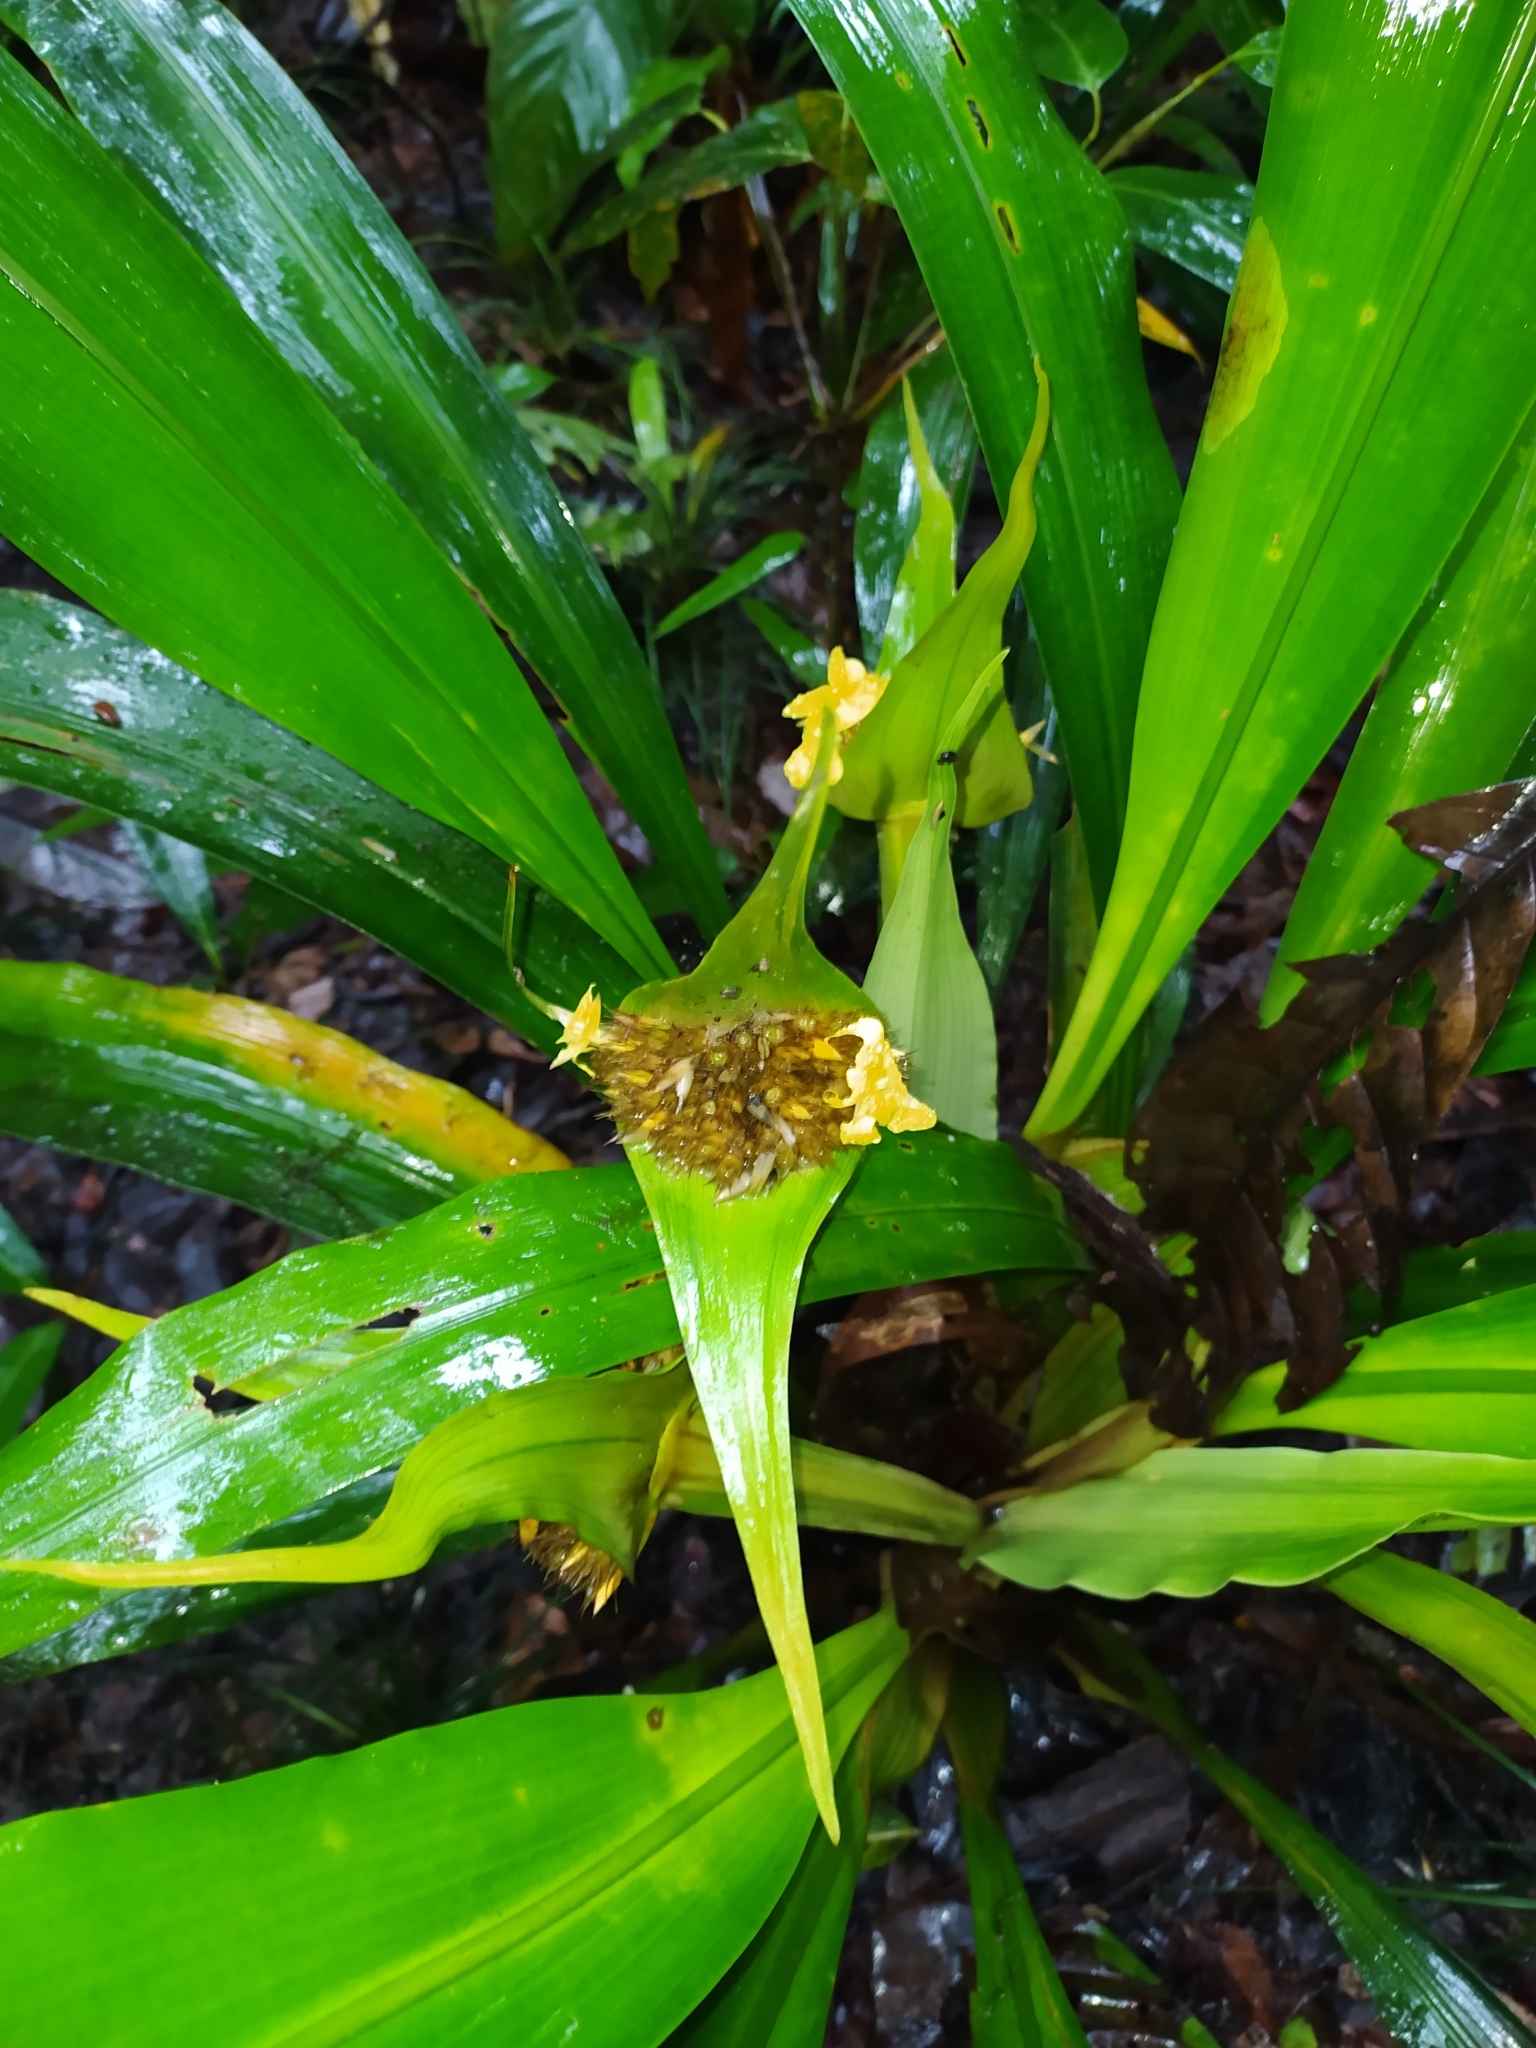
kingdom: Plantae
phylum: Tracheophyta
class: Liliopsida
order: Poales
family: Rapateaceae
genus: Rapatea
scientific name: Rapatea paludosa
